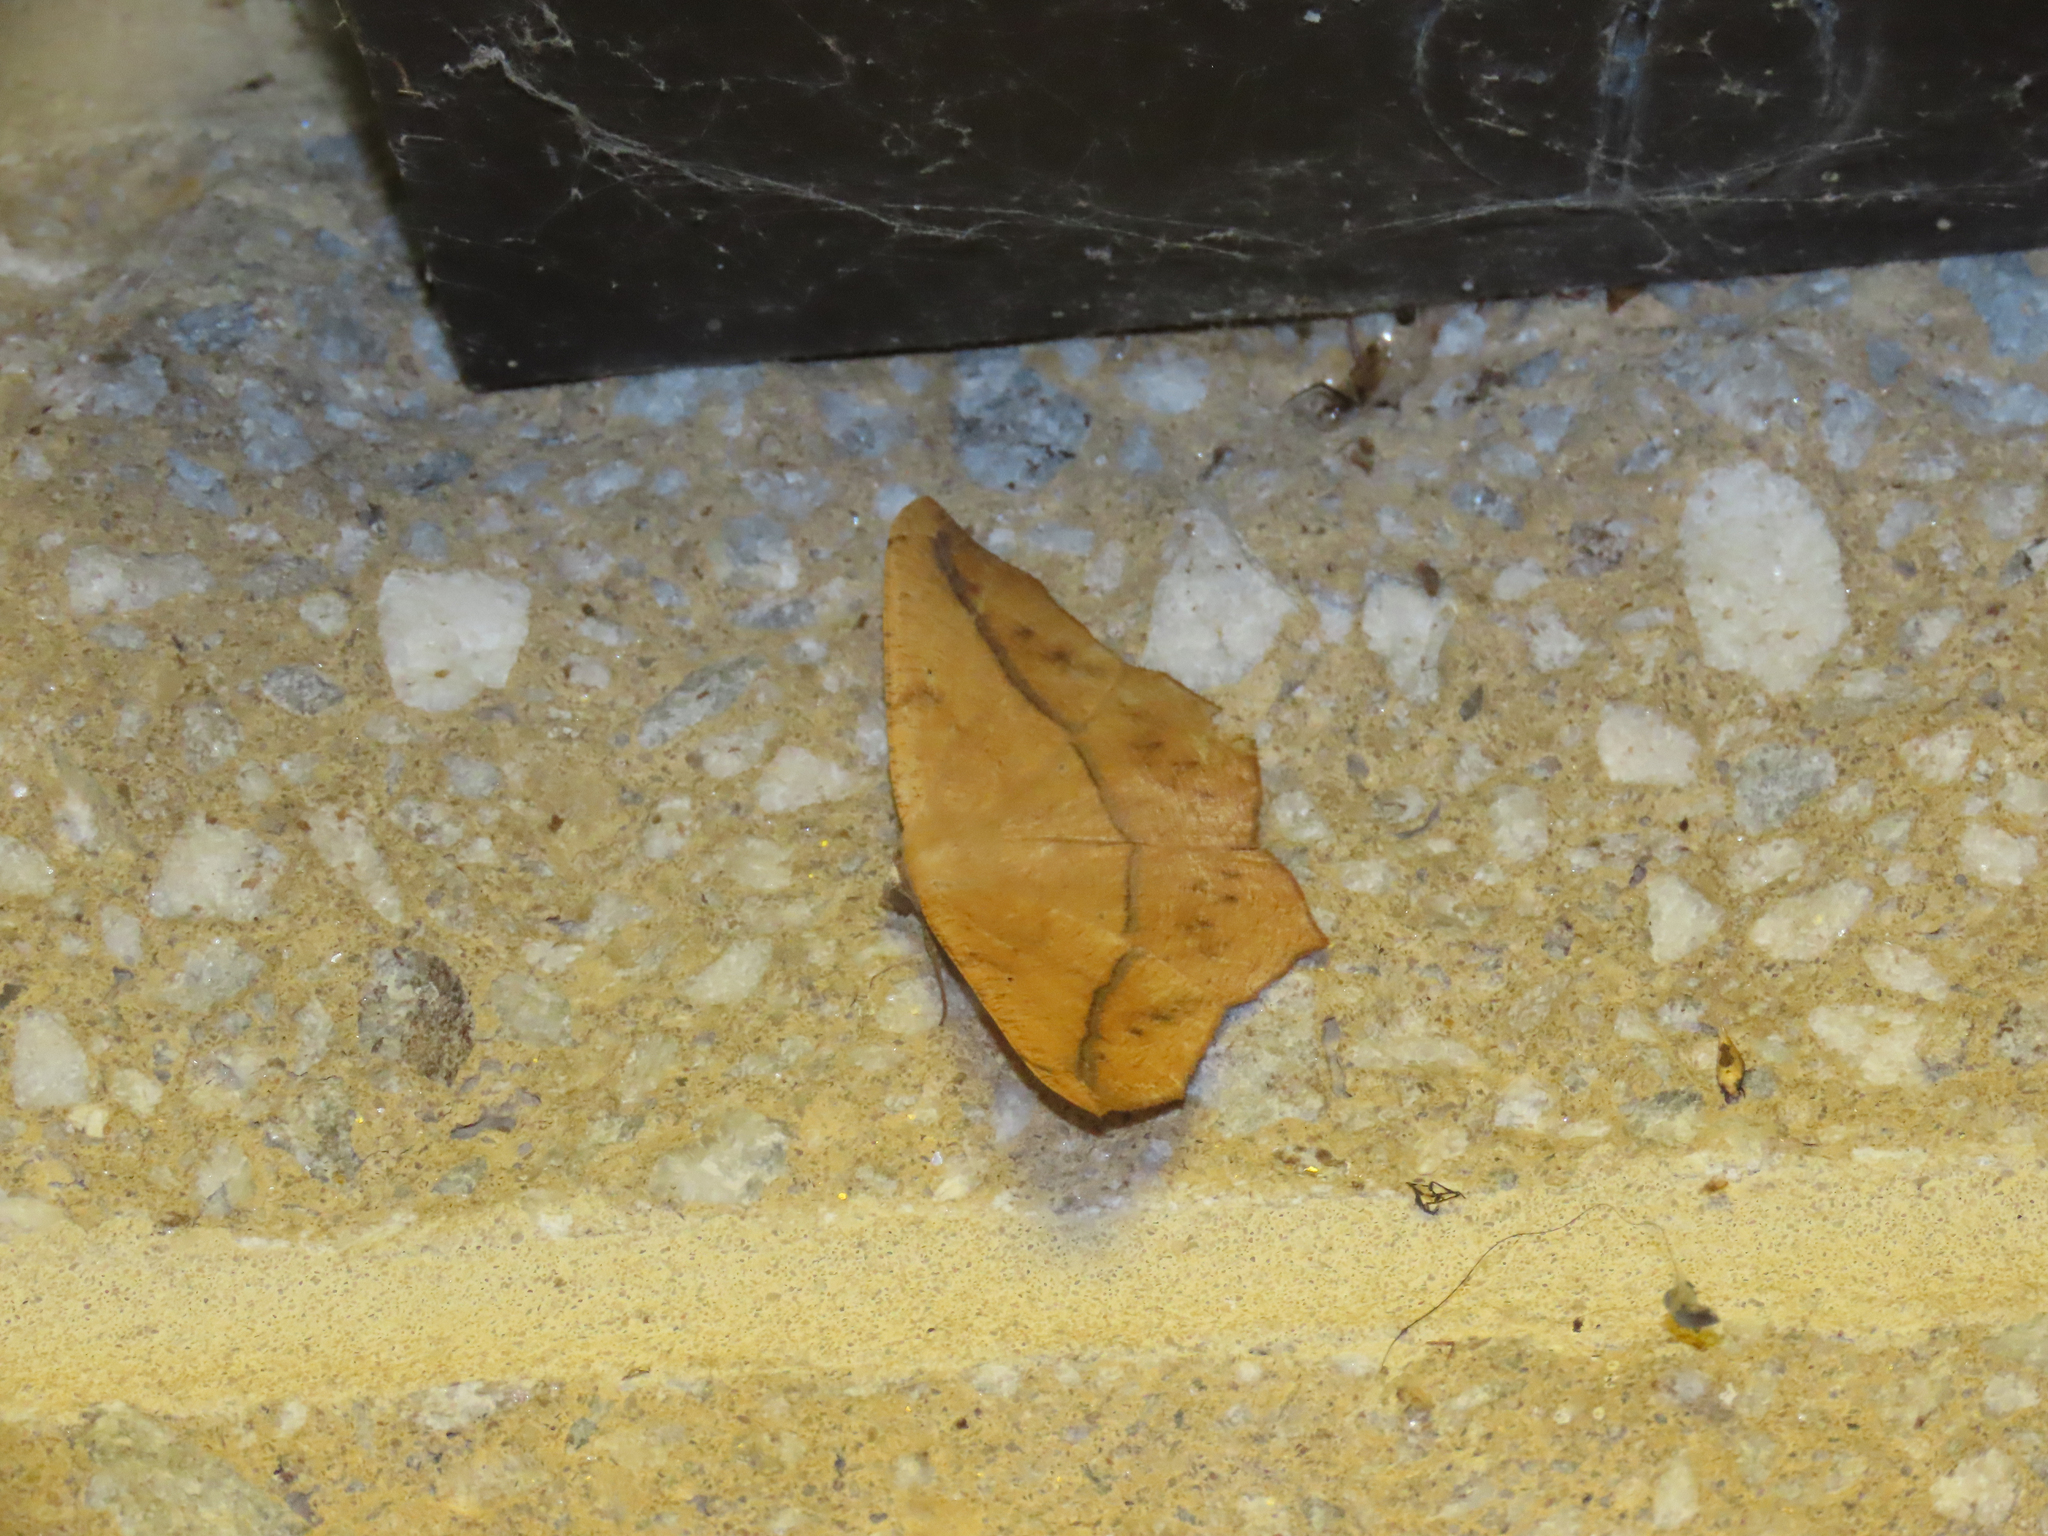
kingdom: Animalia
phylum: Arthropoda
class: Insecta
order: Lepidoptera
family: Geometridae
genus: Patalene
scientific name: Patalene olyzonaria
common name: Juniper geometer moth
